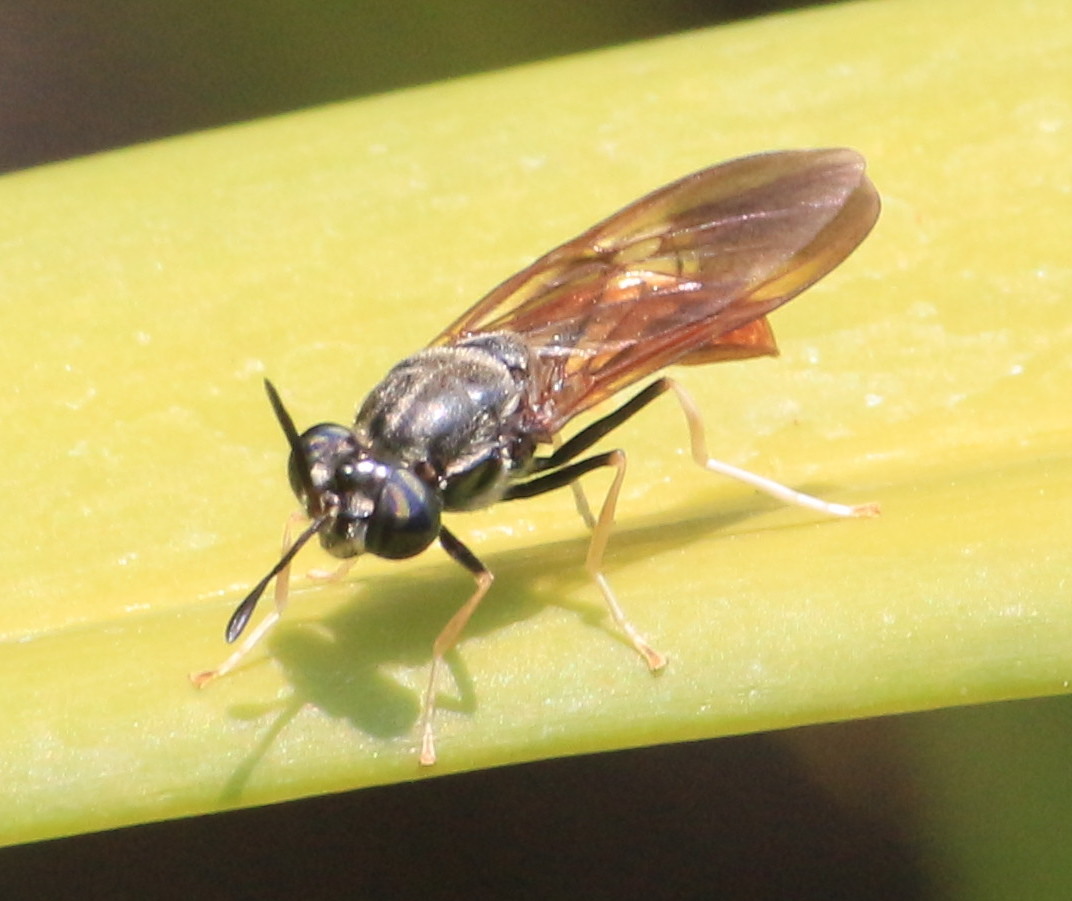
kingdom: Animalia
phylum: Arthropoda
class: Insecta
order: Diptera
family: Stratiomyidae
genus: Hermetia
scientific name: Hermetia lativentris
